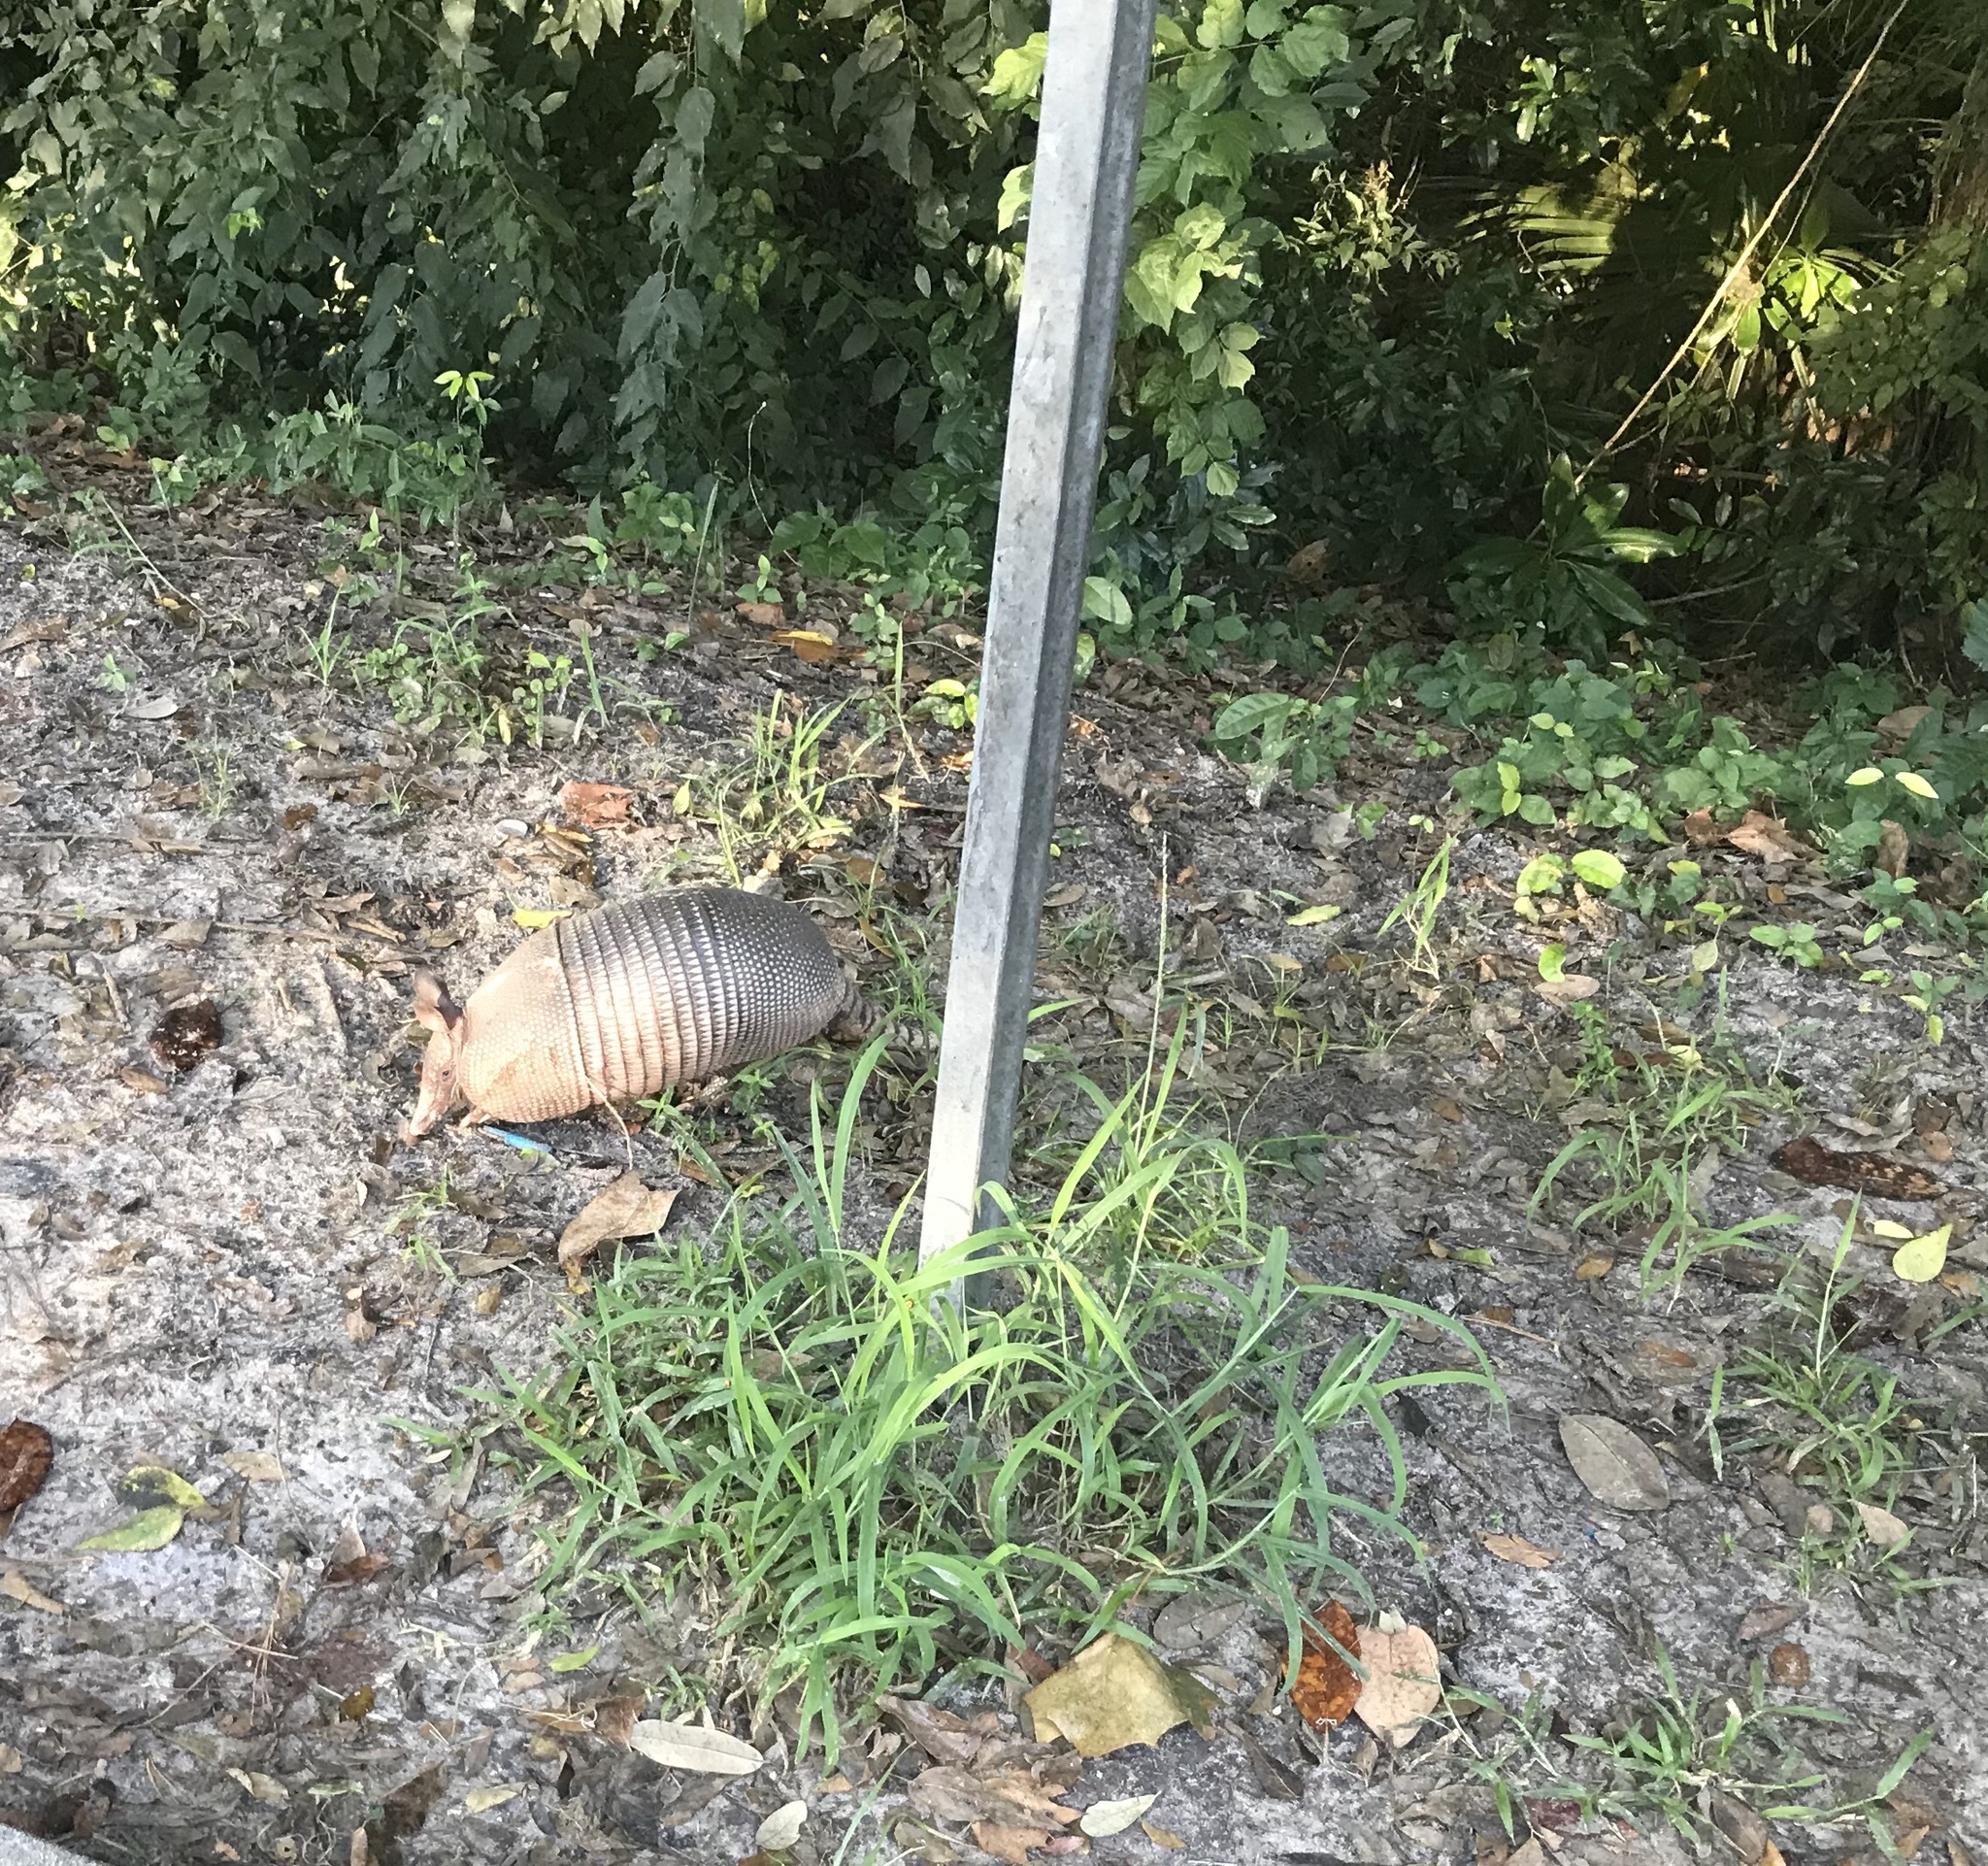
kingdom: Animalia
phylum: Chordata
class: Mammalia
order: Cingulata
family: Dasypodidae
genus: Dasypus
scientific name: Dasypus novemcinctus
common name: Nine-banded armadillo
